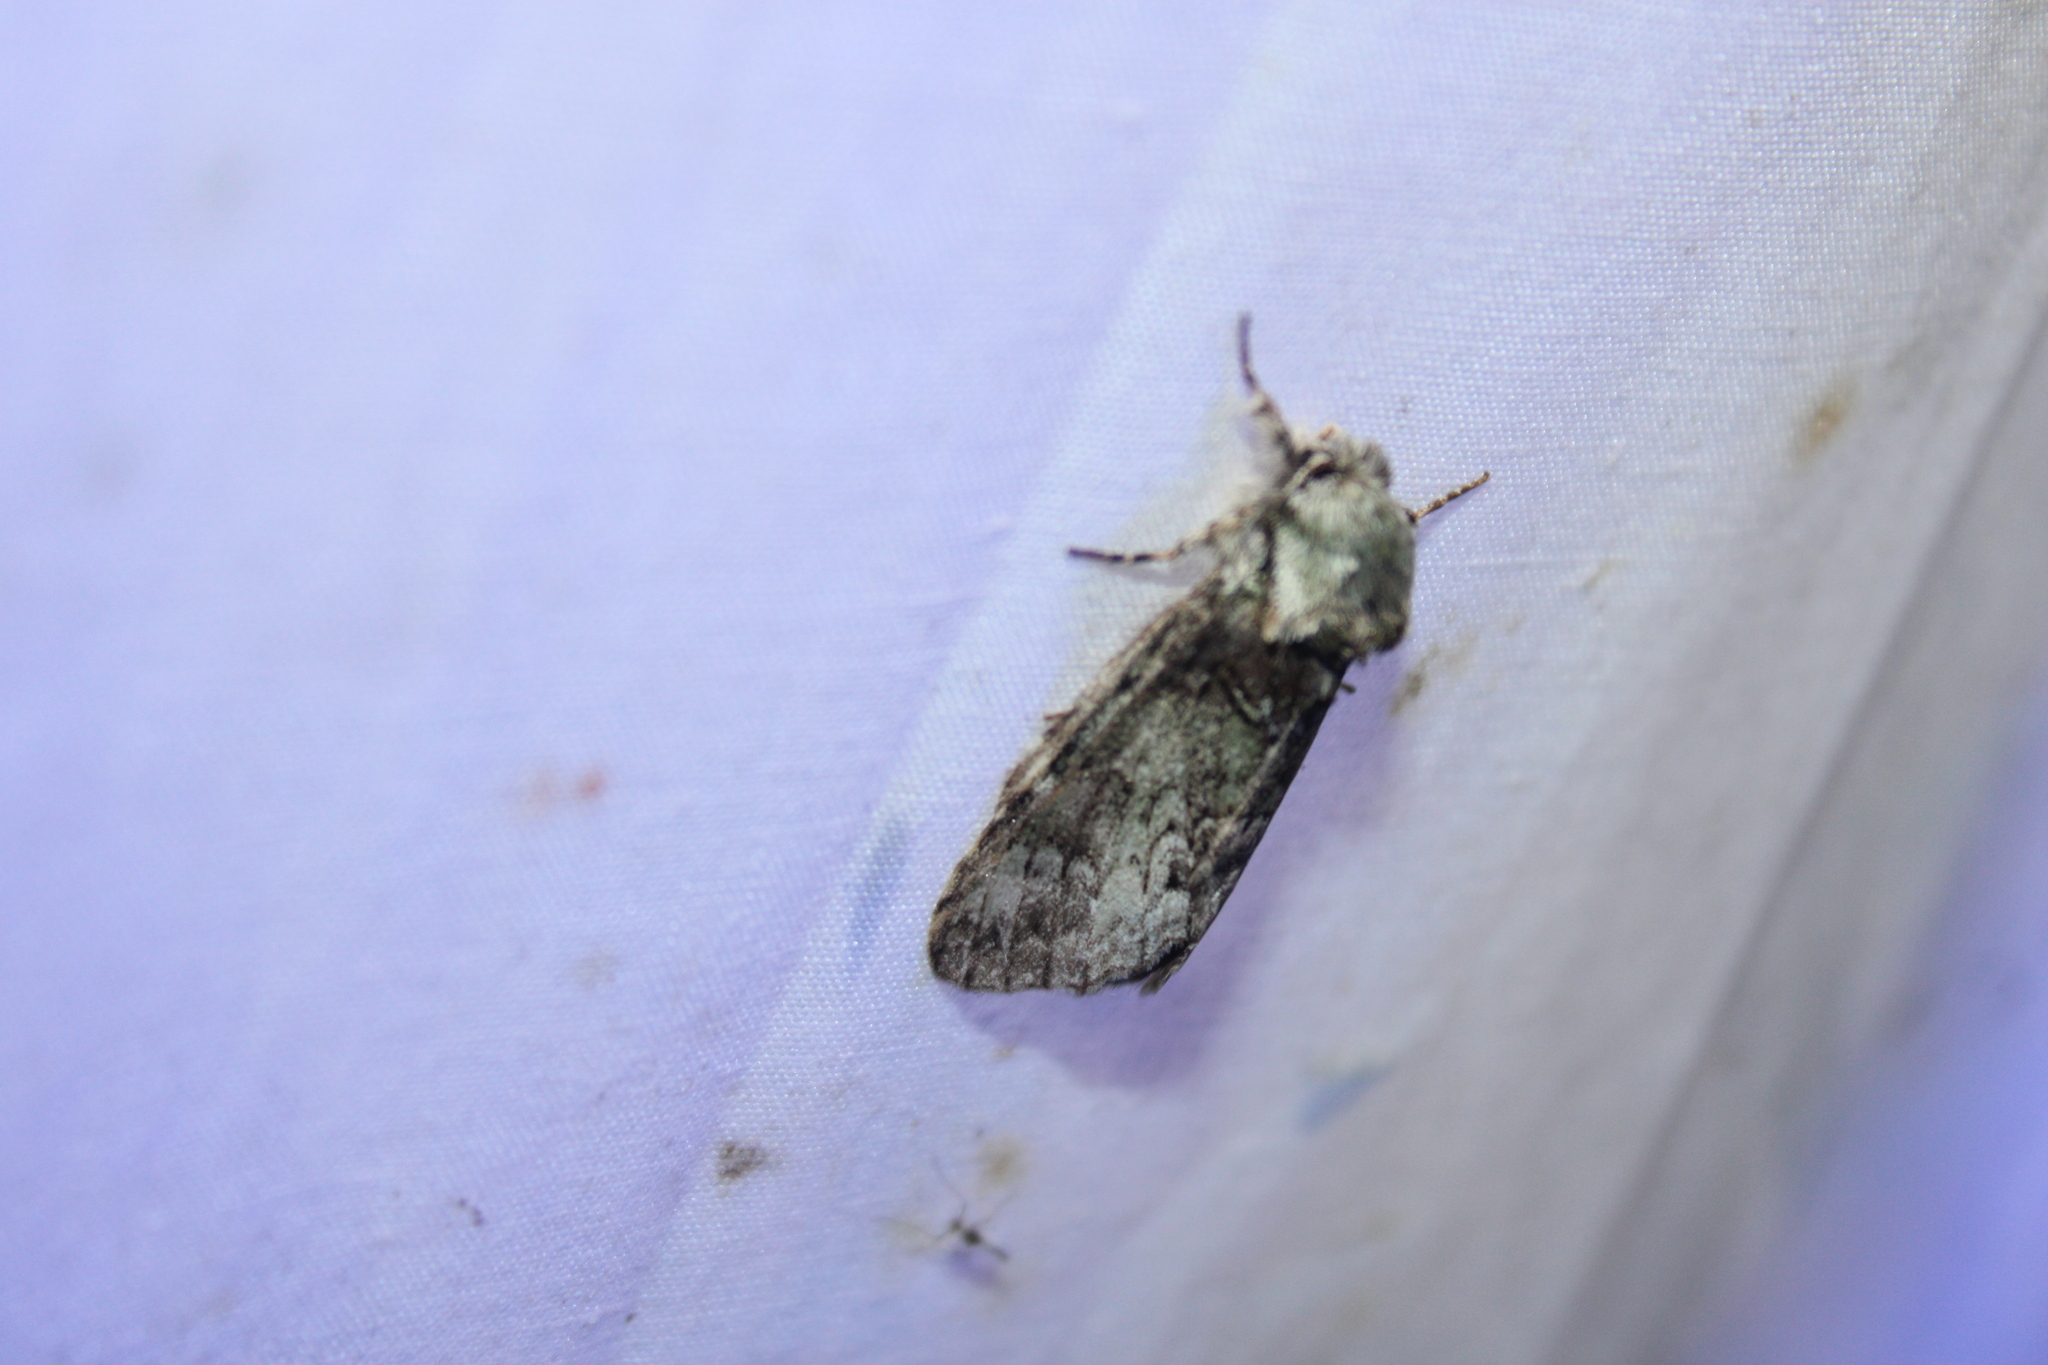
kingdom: Animalia
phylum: Arthropoda
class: Insecta
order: Lepidoptera
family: Notodontidae
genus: Macrurocampa
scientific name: Macrurocampa marthesia
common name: Mottled prominent
